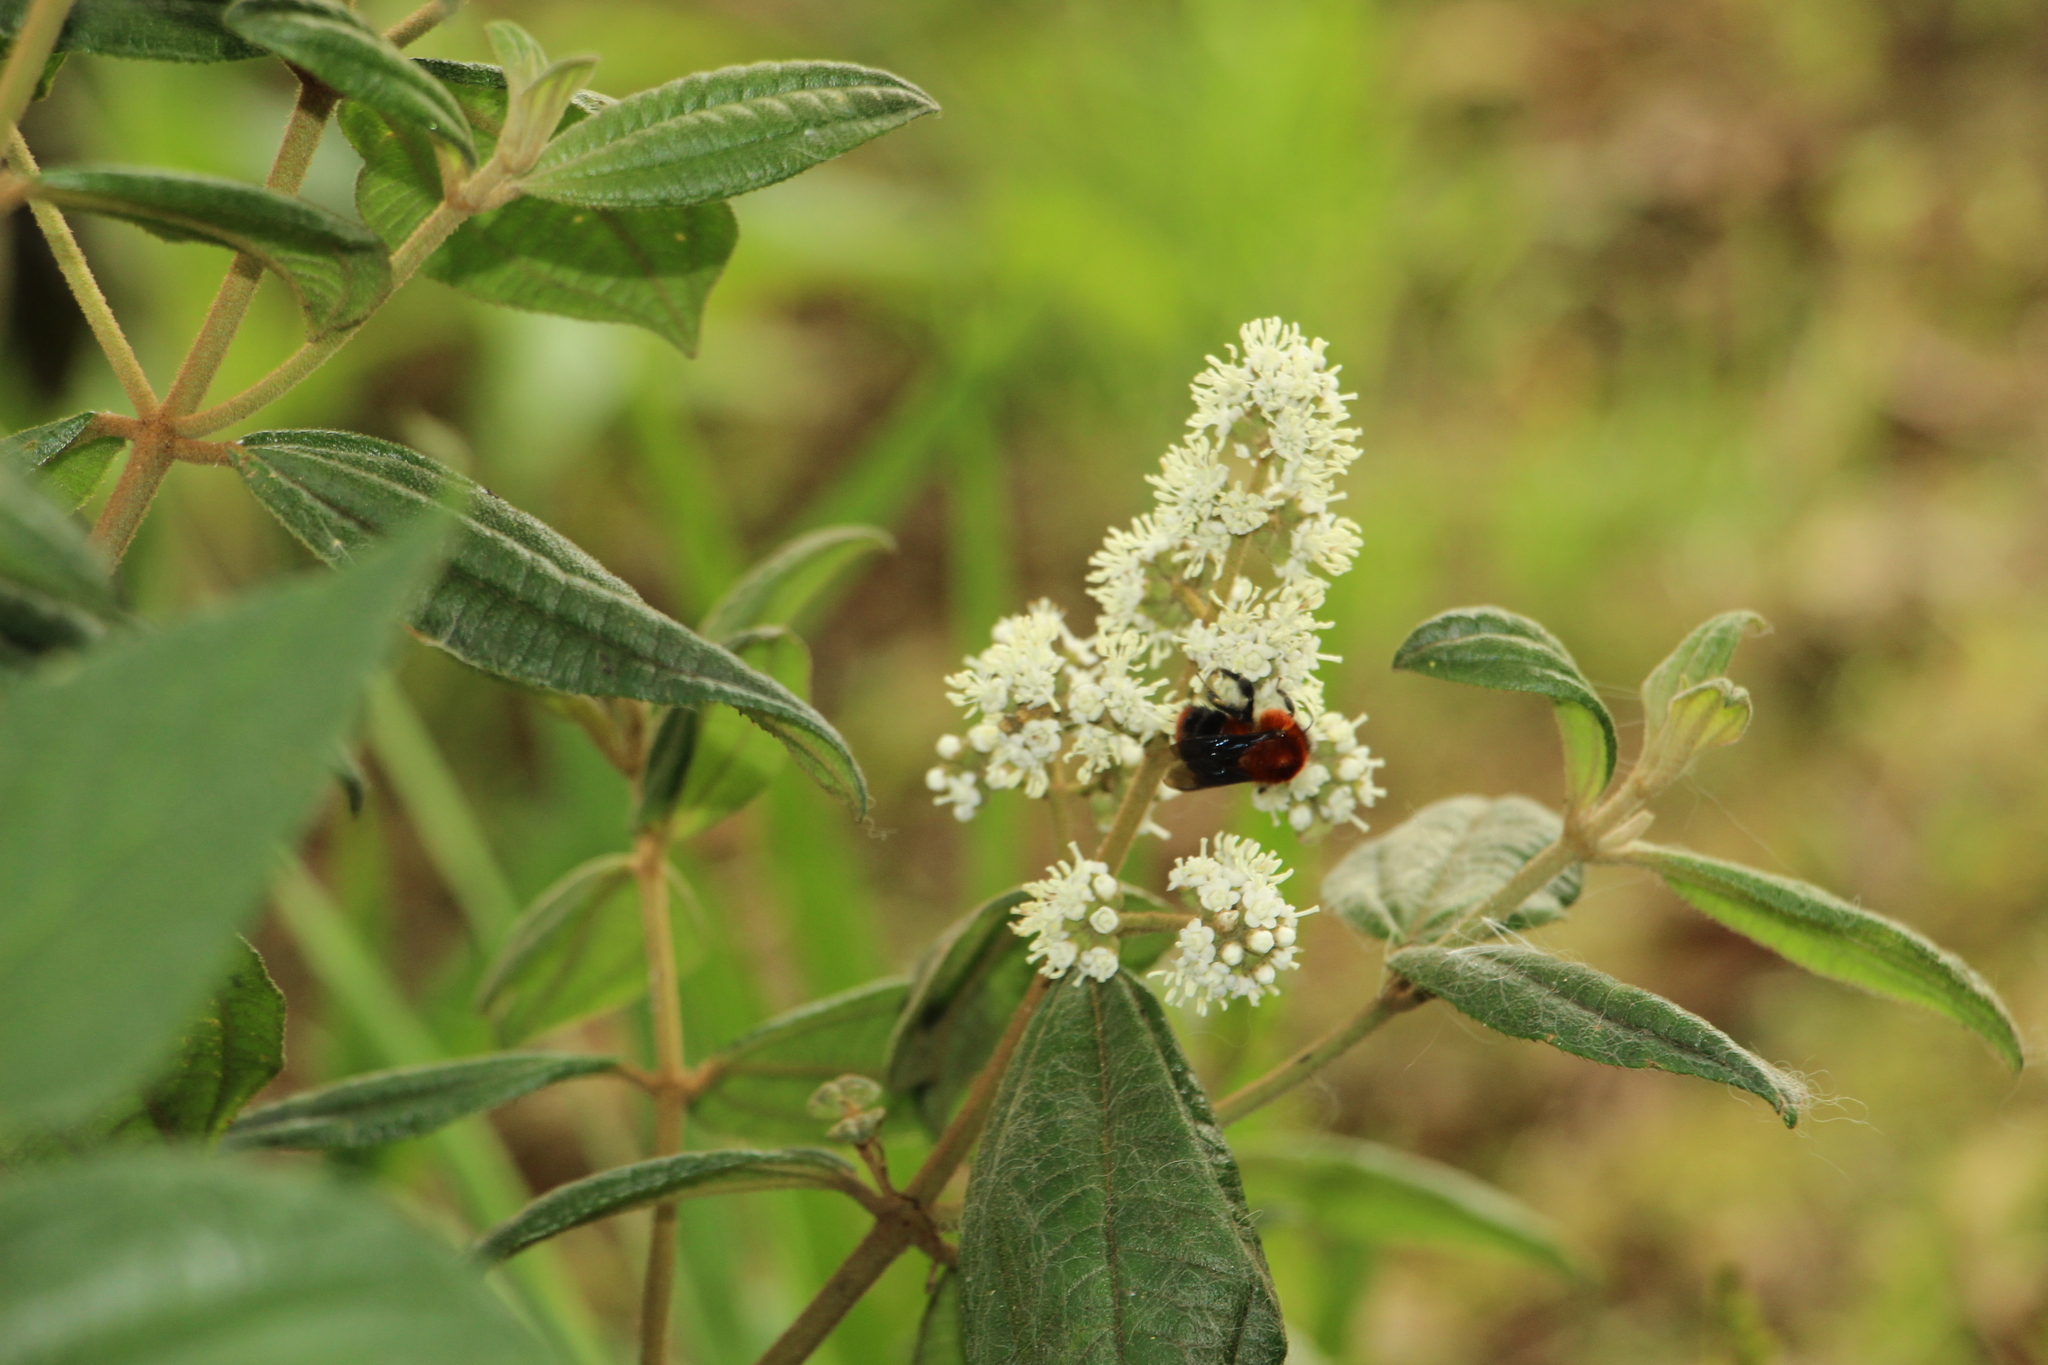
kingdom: Animalia
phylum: Arthropoda
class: Insecta
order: Hymenoptera
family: Apidae
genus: Bombus
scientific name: Bombus rubicundus
